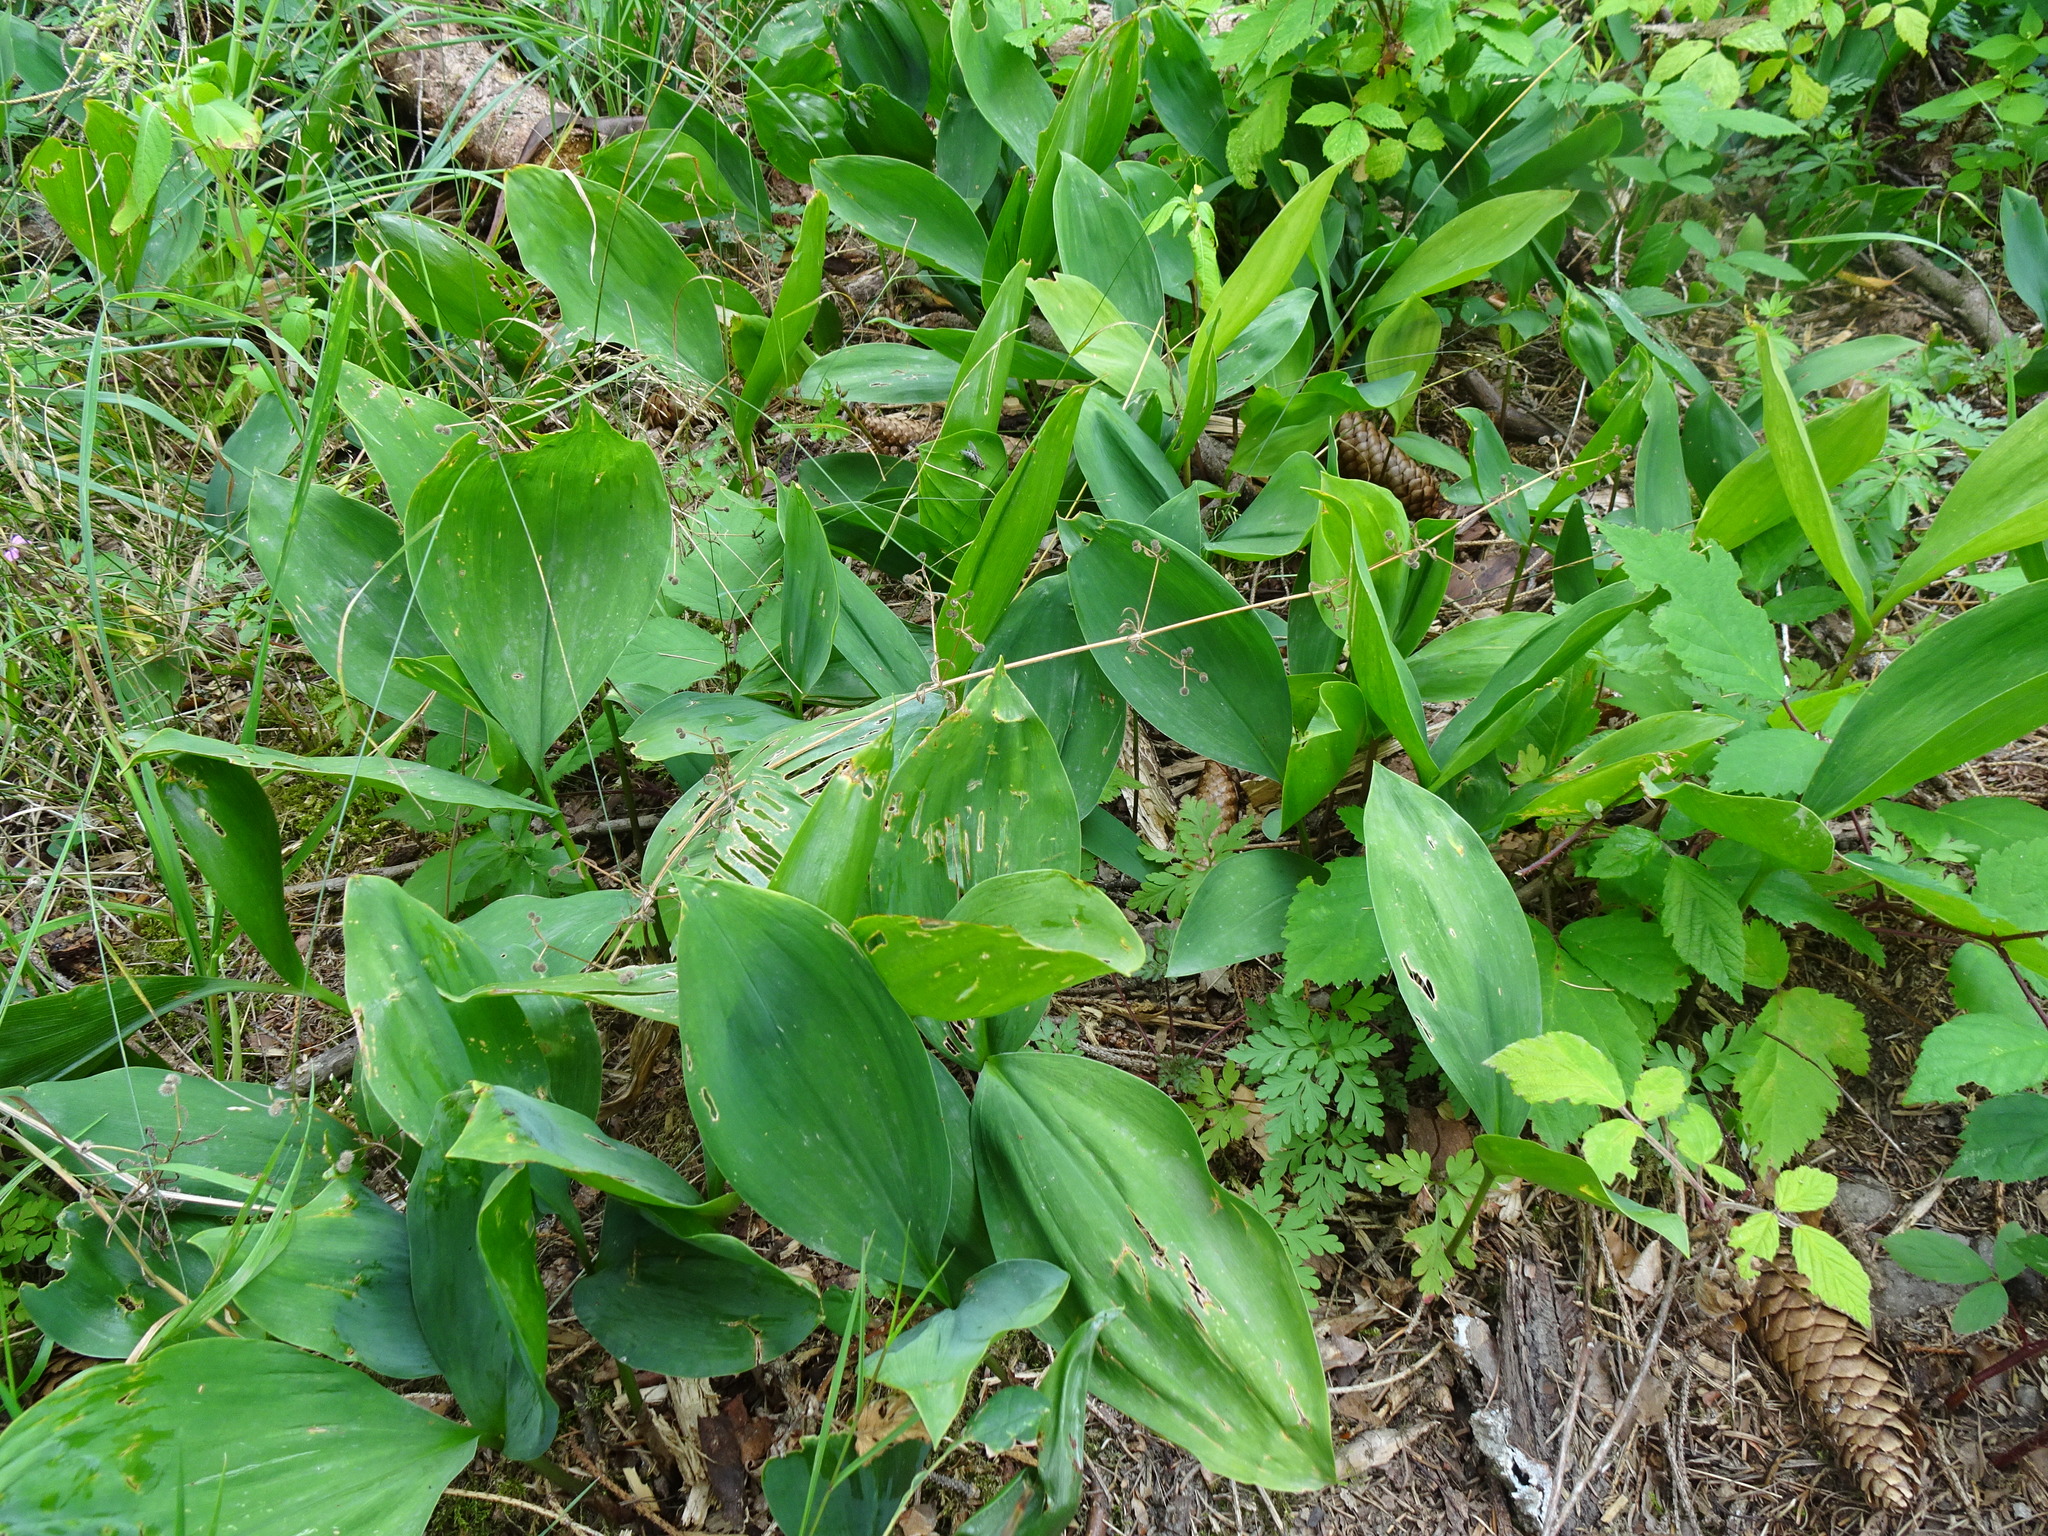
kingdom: Plantae
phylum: Tracheophyta
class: Liliopsida
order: Asparagales
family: Asparagaceae
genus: Convallaria
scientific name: Convallaria majalis
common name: Lily-of-the-valley
